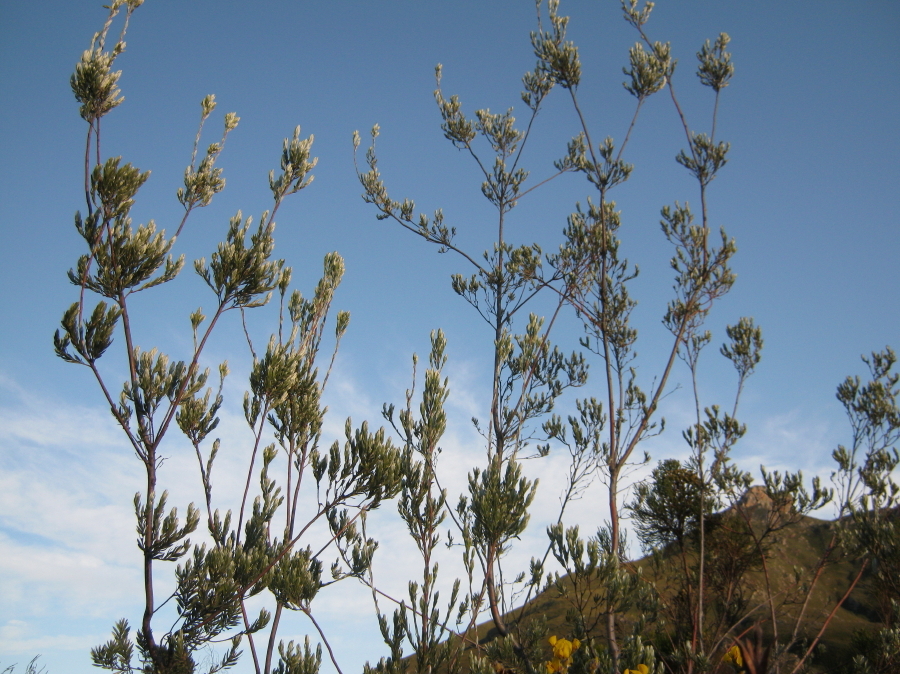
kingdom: Plantae
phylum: Tracheophyta
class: Magnoliopsida
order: Proteales
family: Proteaceae
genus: Leucadendron
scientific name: Leucadendron uliginosum
